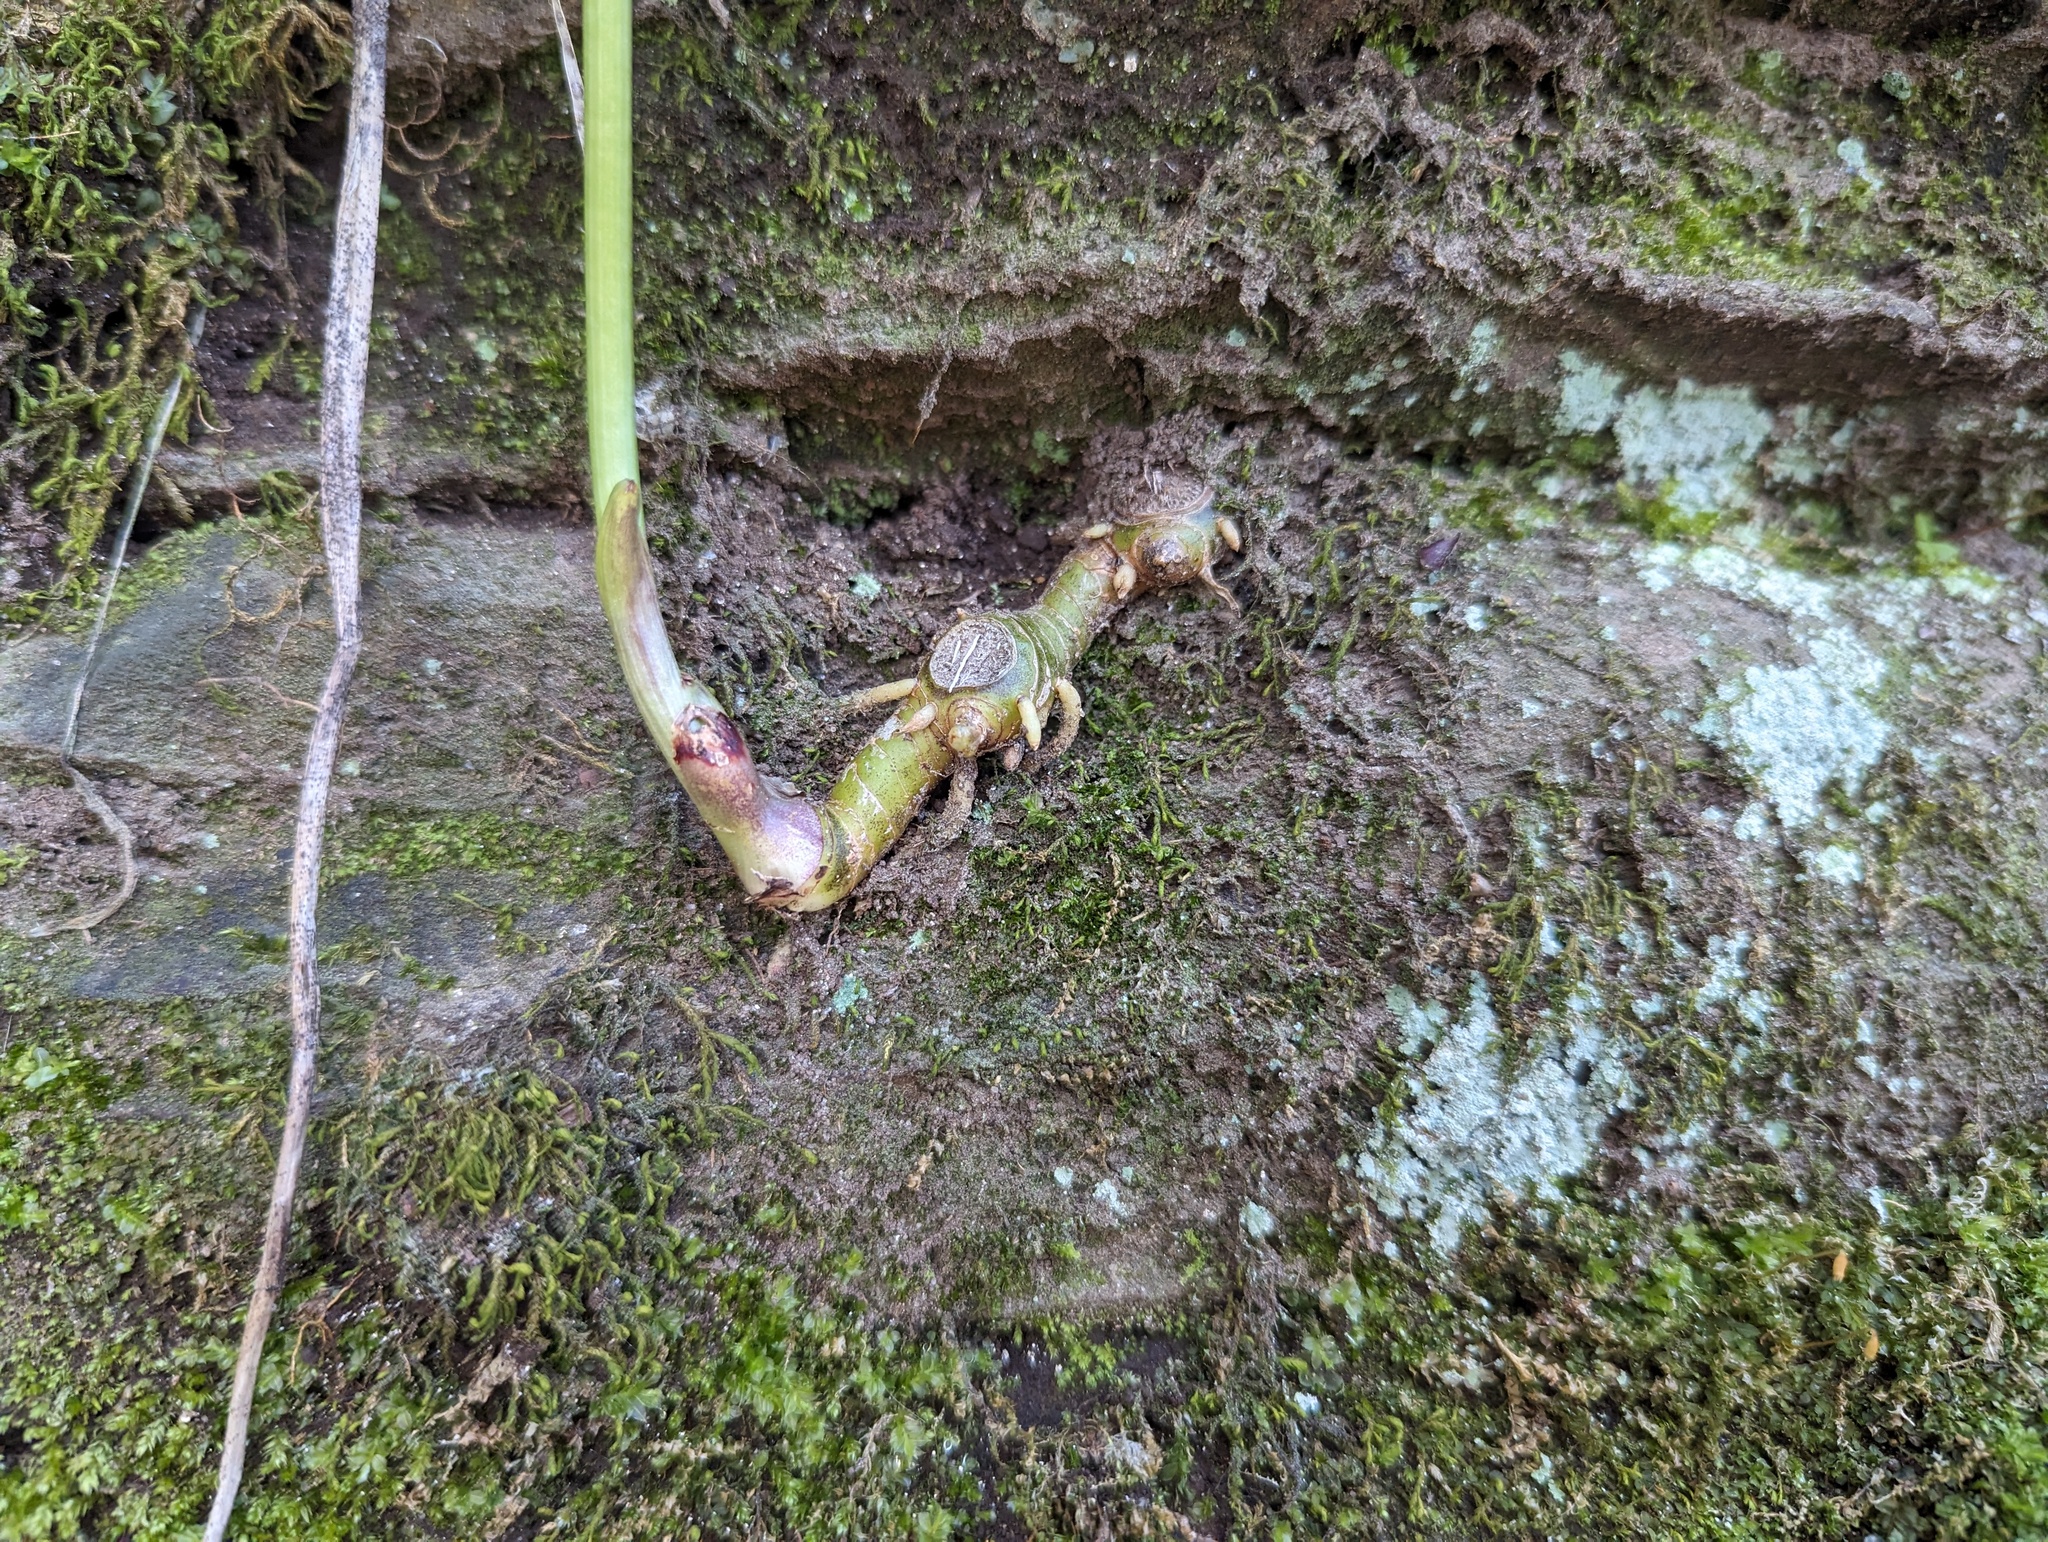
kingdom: Plantae
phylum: Tracheophyta
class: Liliopsida
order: Asparagales
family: Asparagaceae
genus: Maianthemum
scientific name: Maianthemum racemosum
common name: False spikenard
